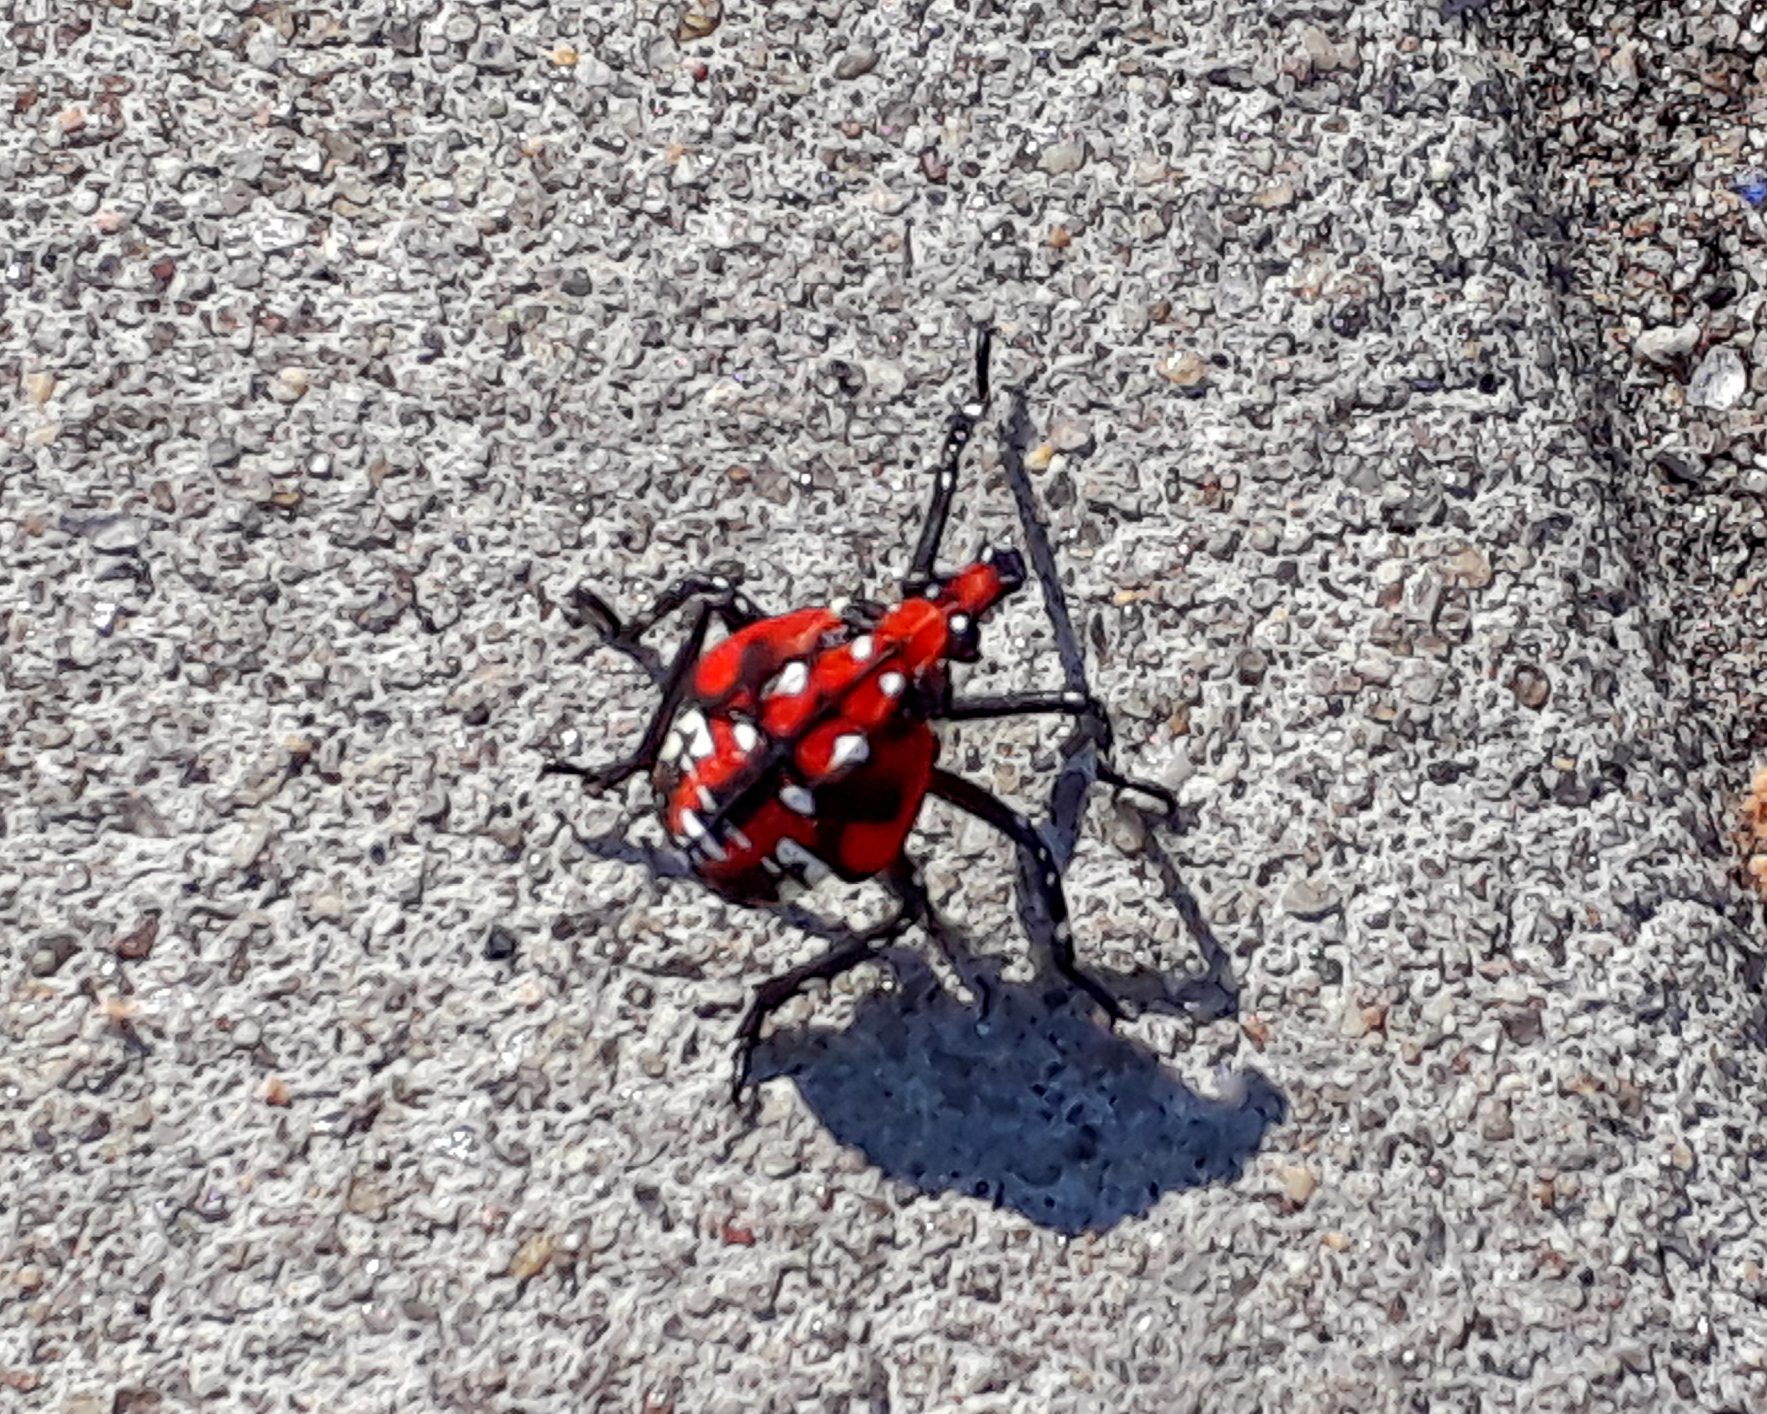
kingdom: Animalia
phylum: Arthropoda
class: Insecta
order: Hemiptera
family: Fulgoridae
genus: Lycorma
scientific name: Lycorma delicatula
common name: Spotted lanternfly
